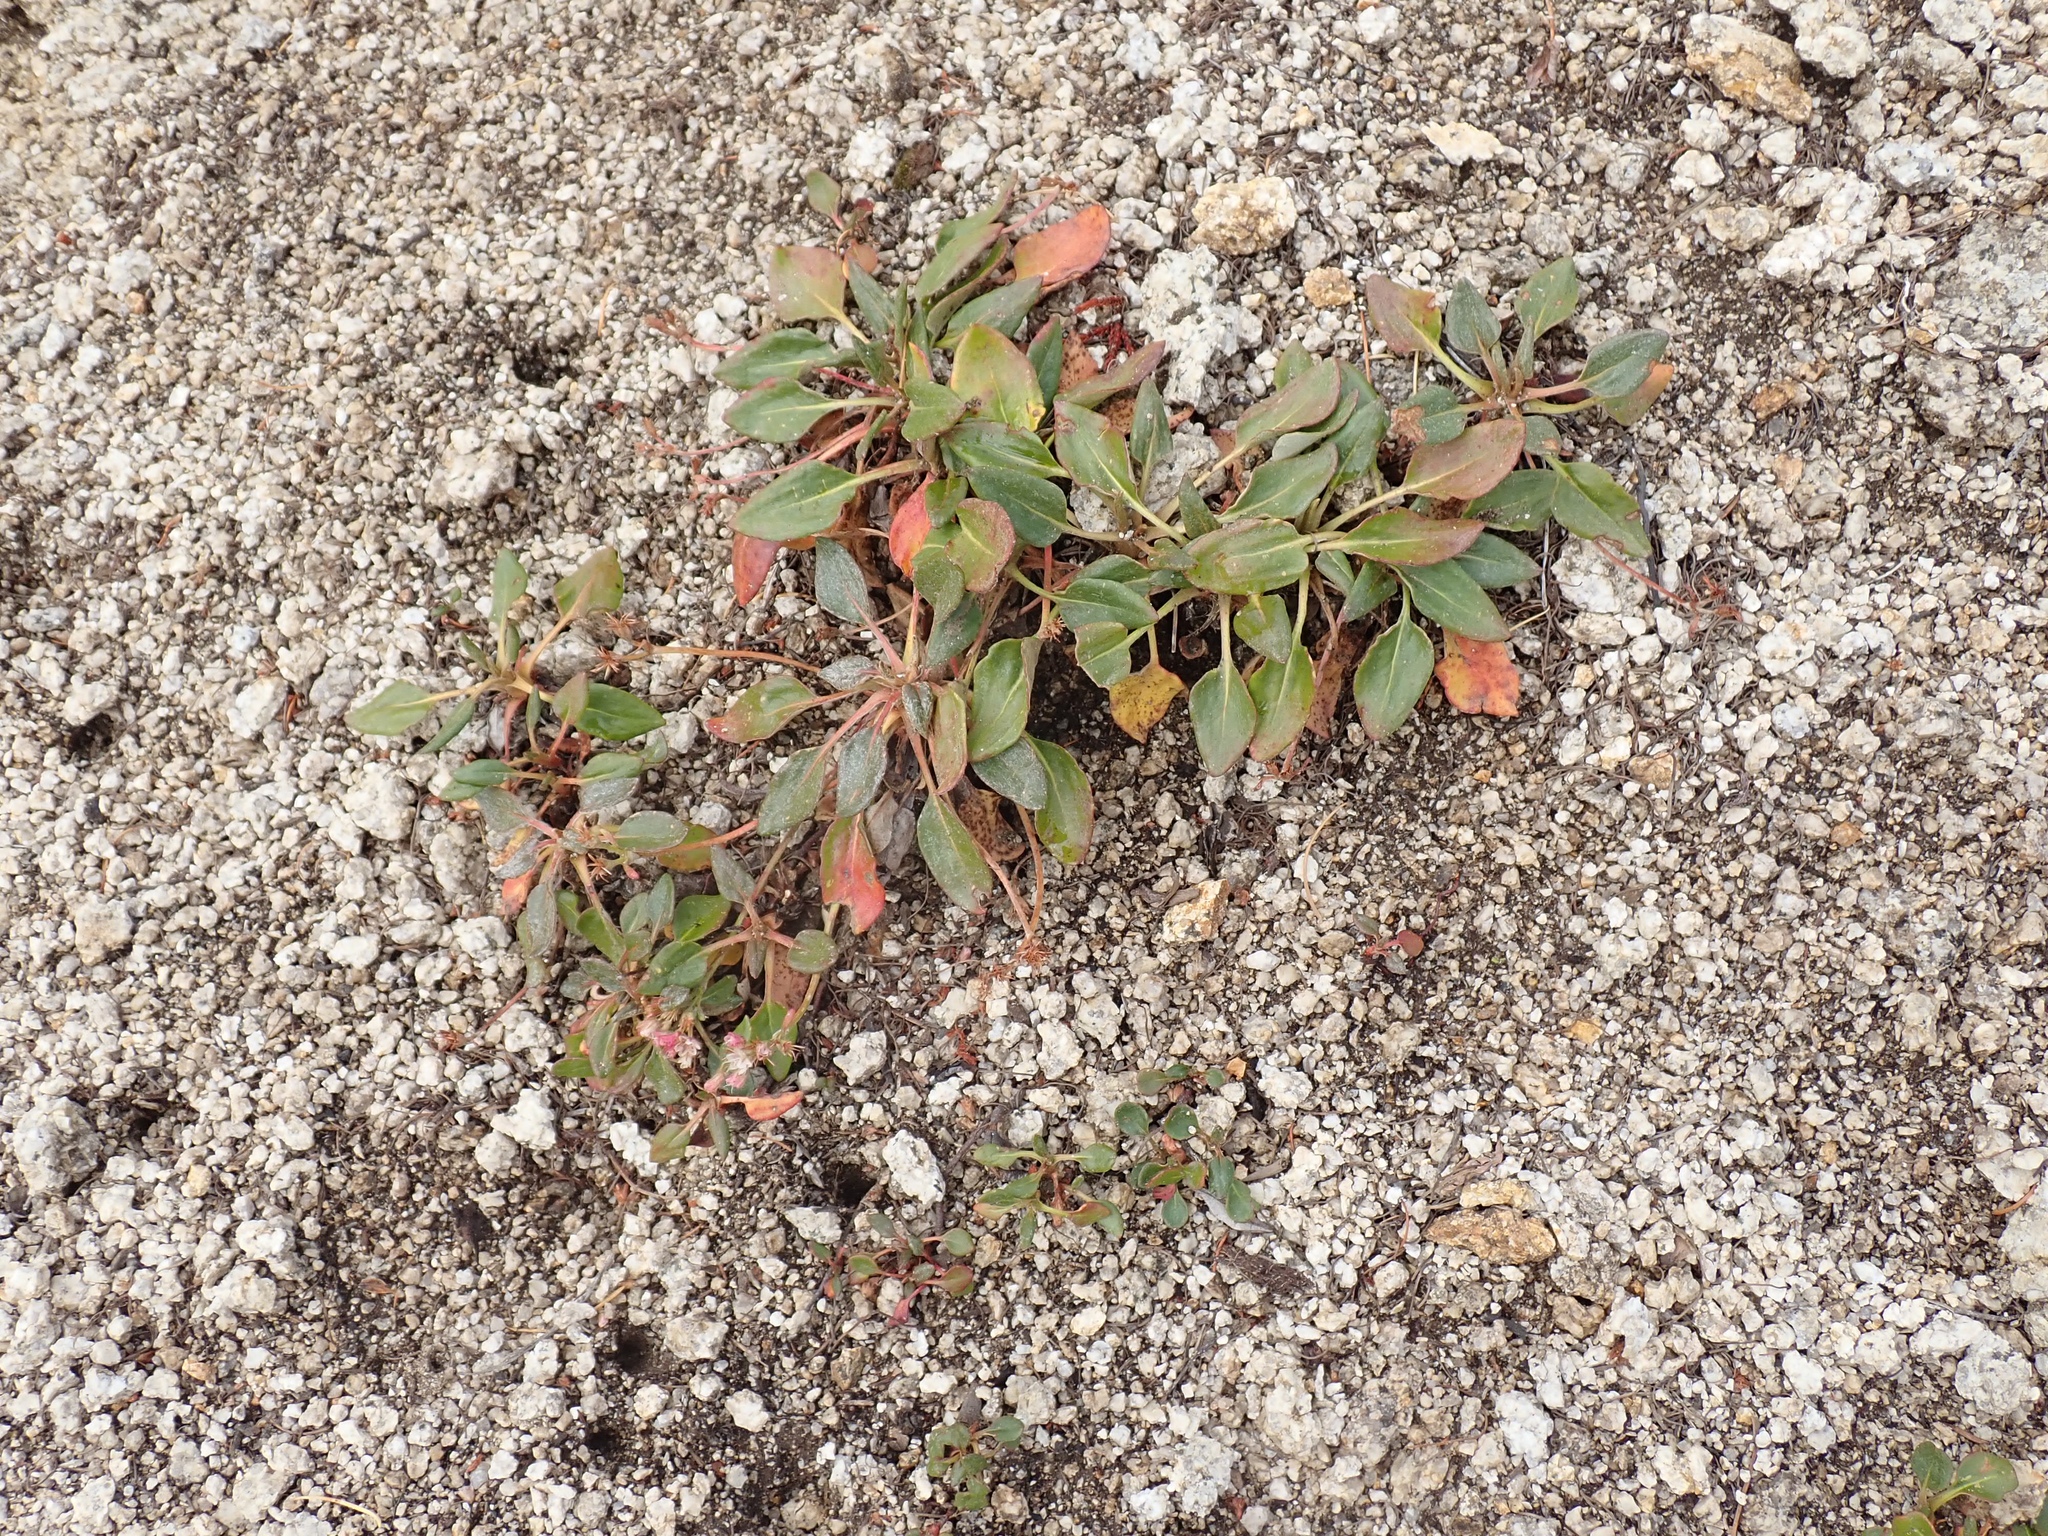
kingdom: Plantae
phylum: Tracheophyta
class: Magnoliopsida
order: Caryophyllales
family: Polygonaceae
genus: Eriogonum
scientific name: Eriogonum pyrolifolium
